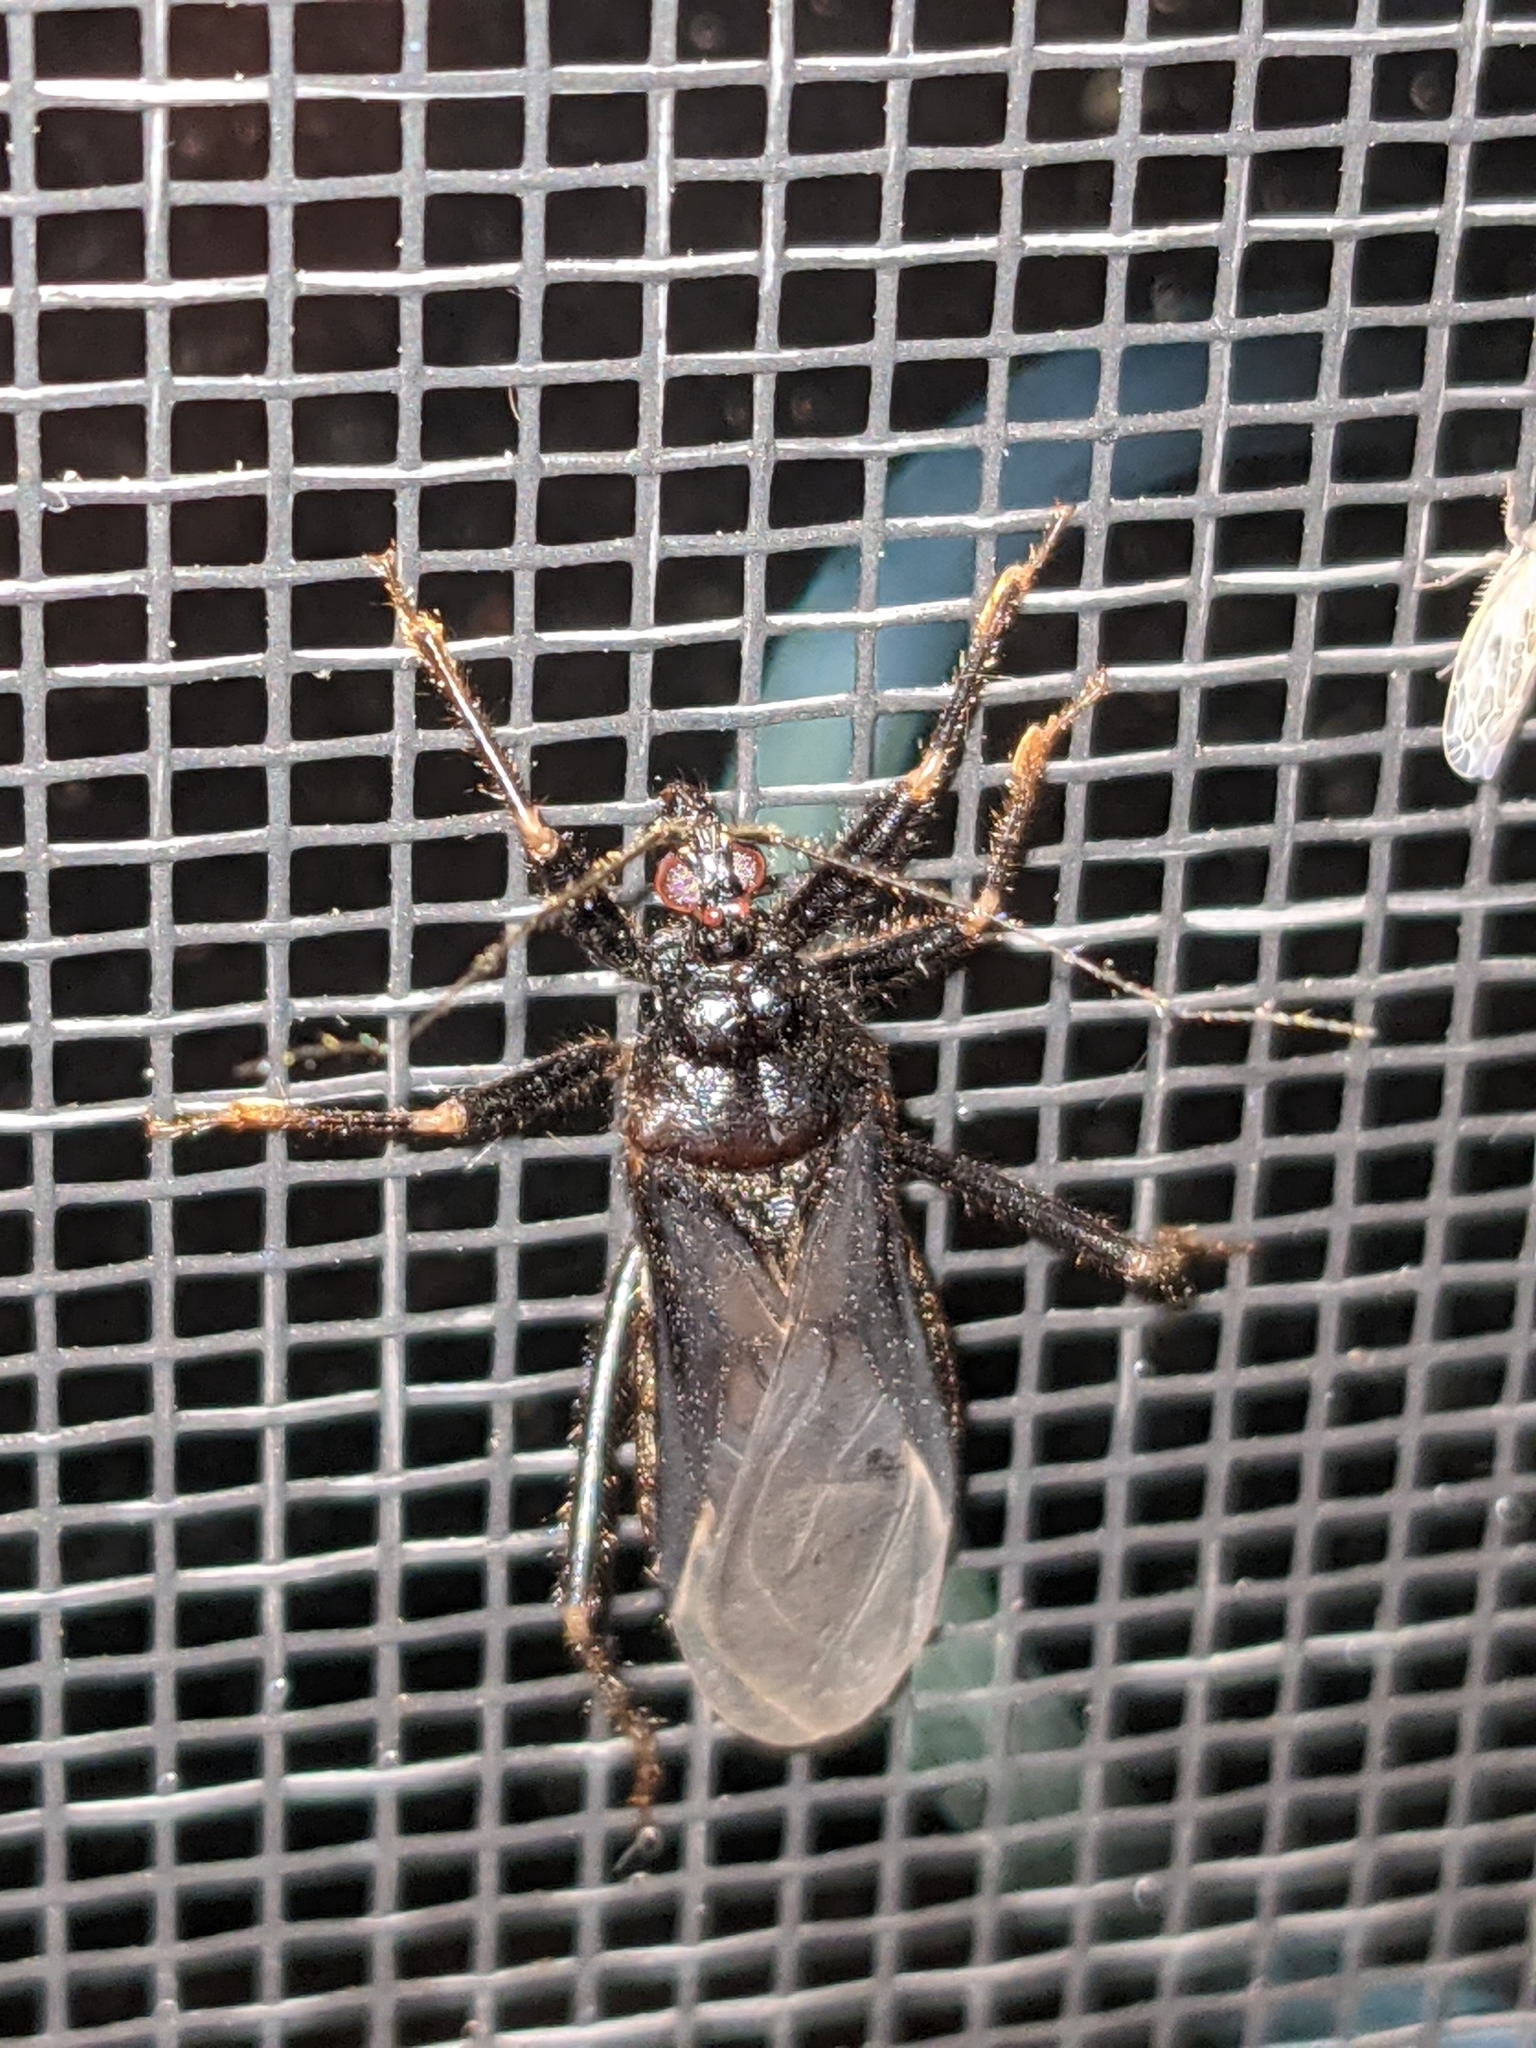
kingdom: Animalia
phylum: Arthropoda
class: Insecta
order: Hemiptera
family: Reduviidae
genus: Reduvius
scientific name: Reduvius personatus
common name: Masked hunter
